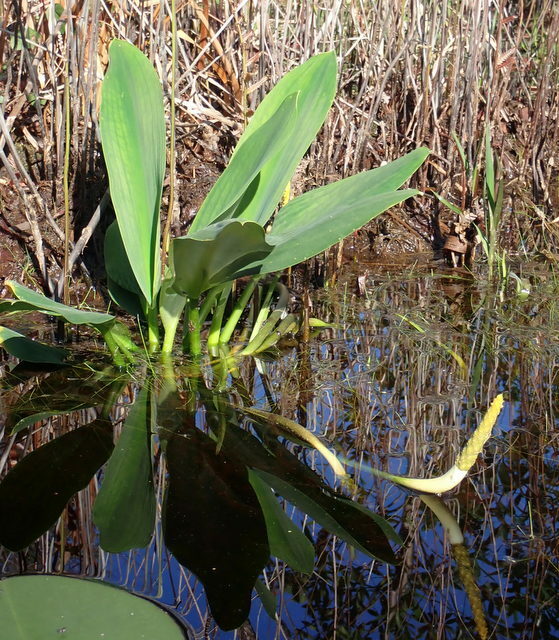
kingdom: Plantae
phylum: Tracheophyta
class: Liliopsida
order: Alismatales
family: Araceae
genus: Orontium
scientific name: Orontium aquaticum
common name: Golden-club
